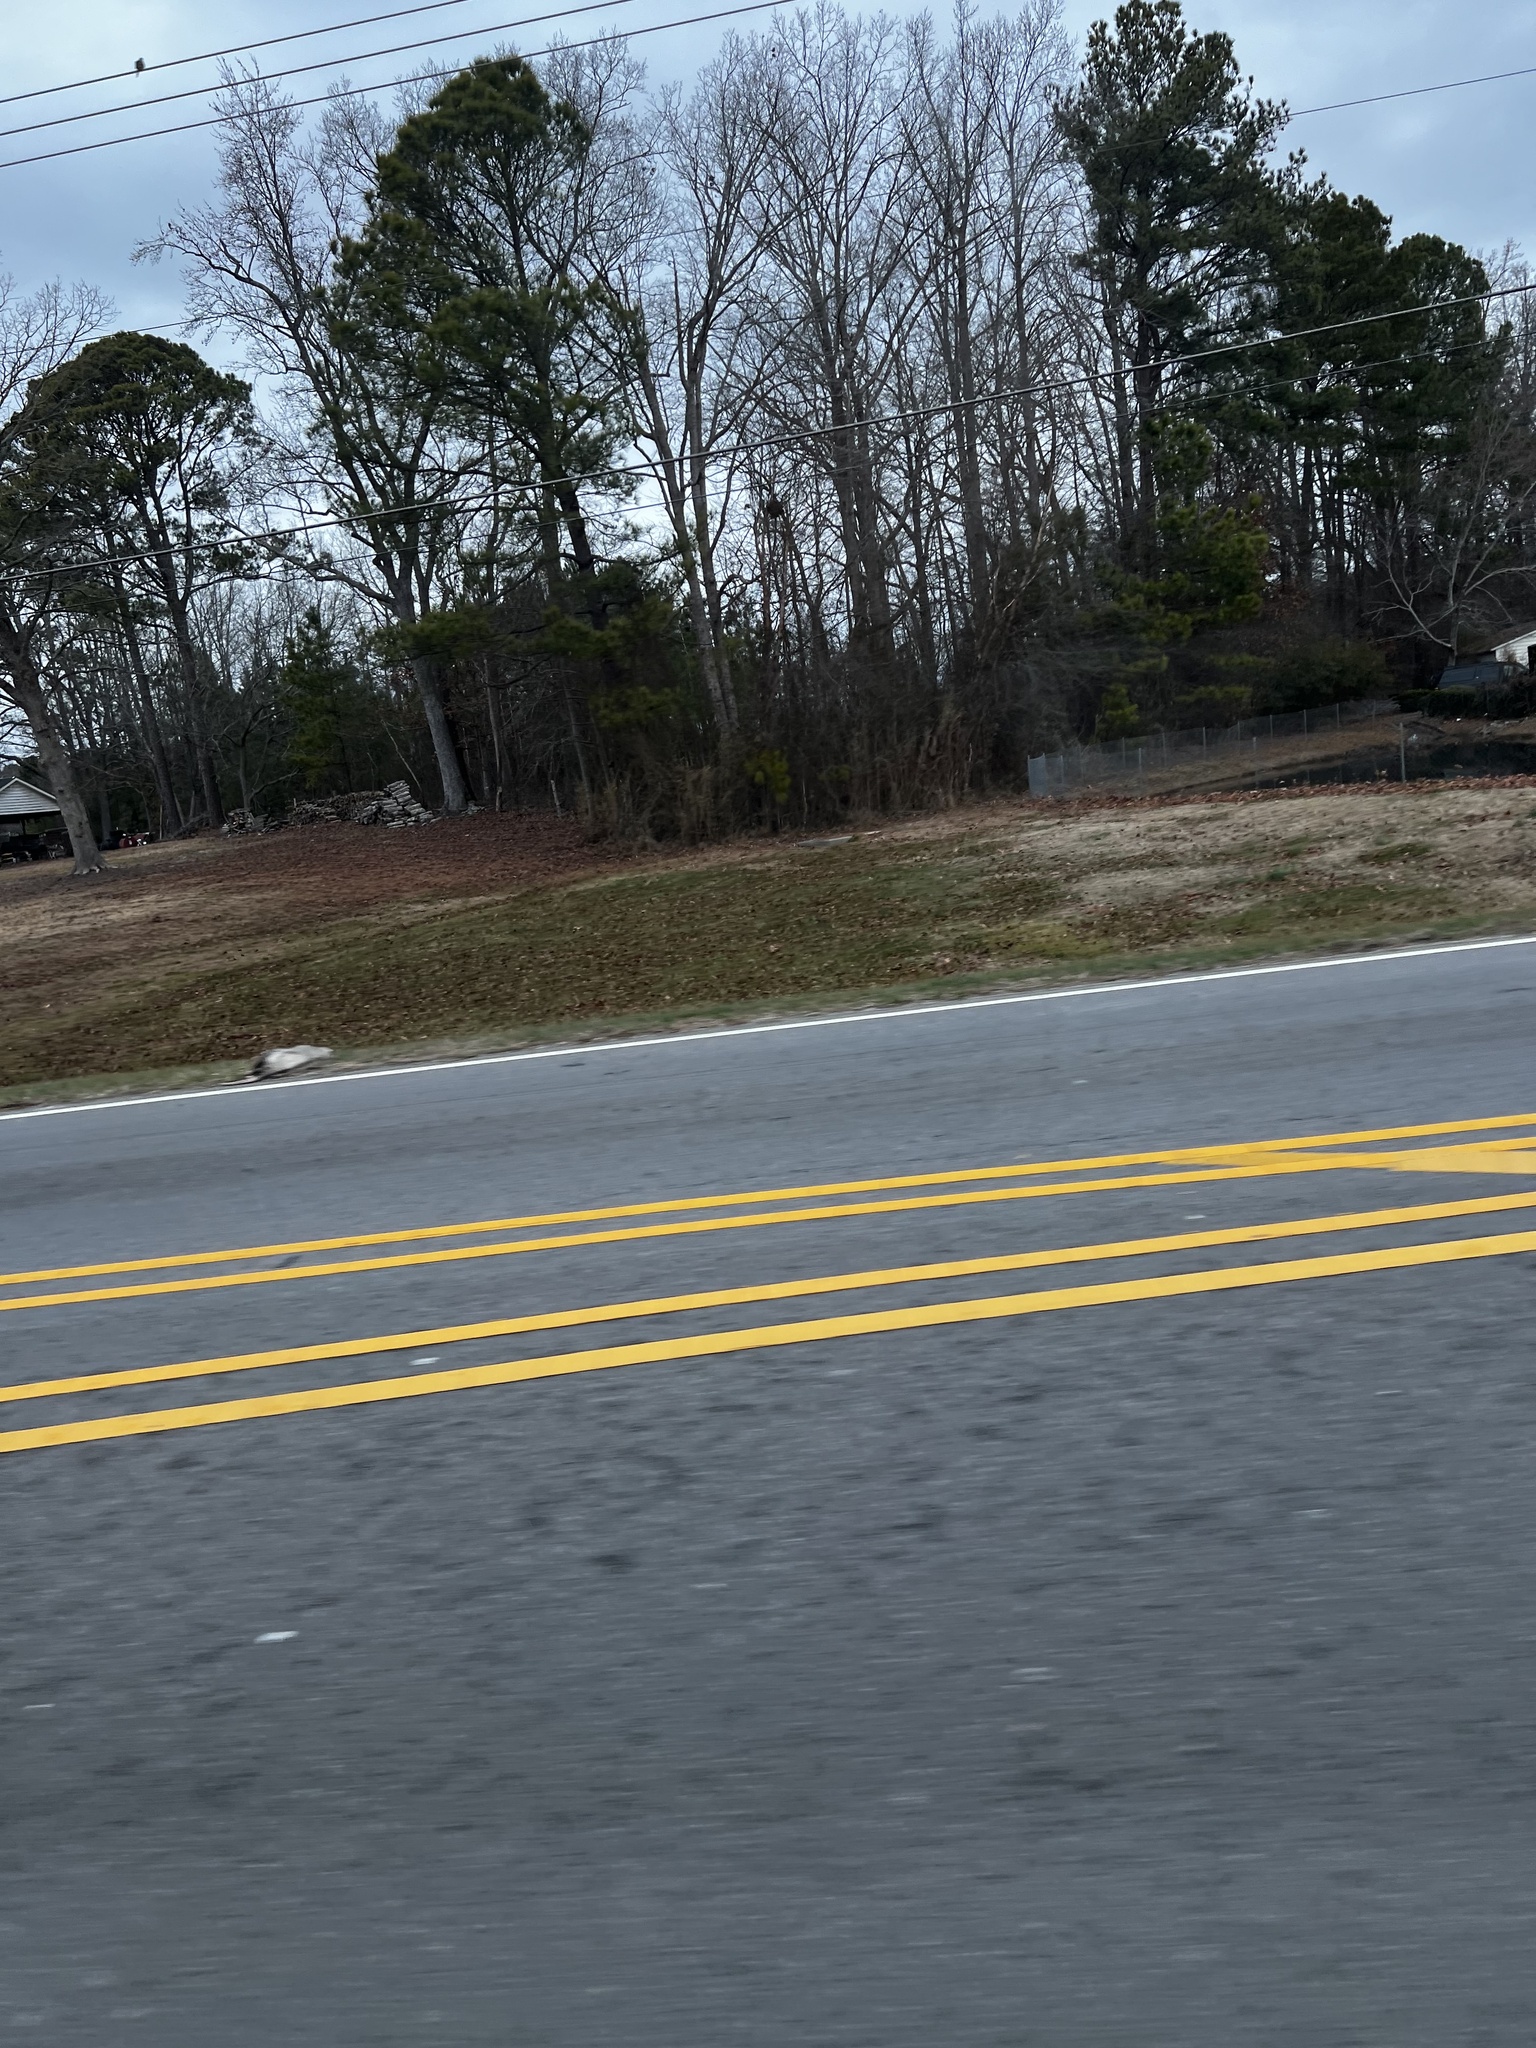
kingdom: Animalia
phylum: Chordata
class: Mammalia
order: Didelphimorphia
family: Didelphidae
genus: Didelphis
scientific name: Didelphis virginiana
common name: Virginia opossum
